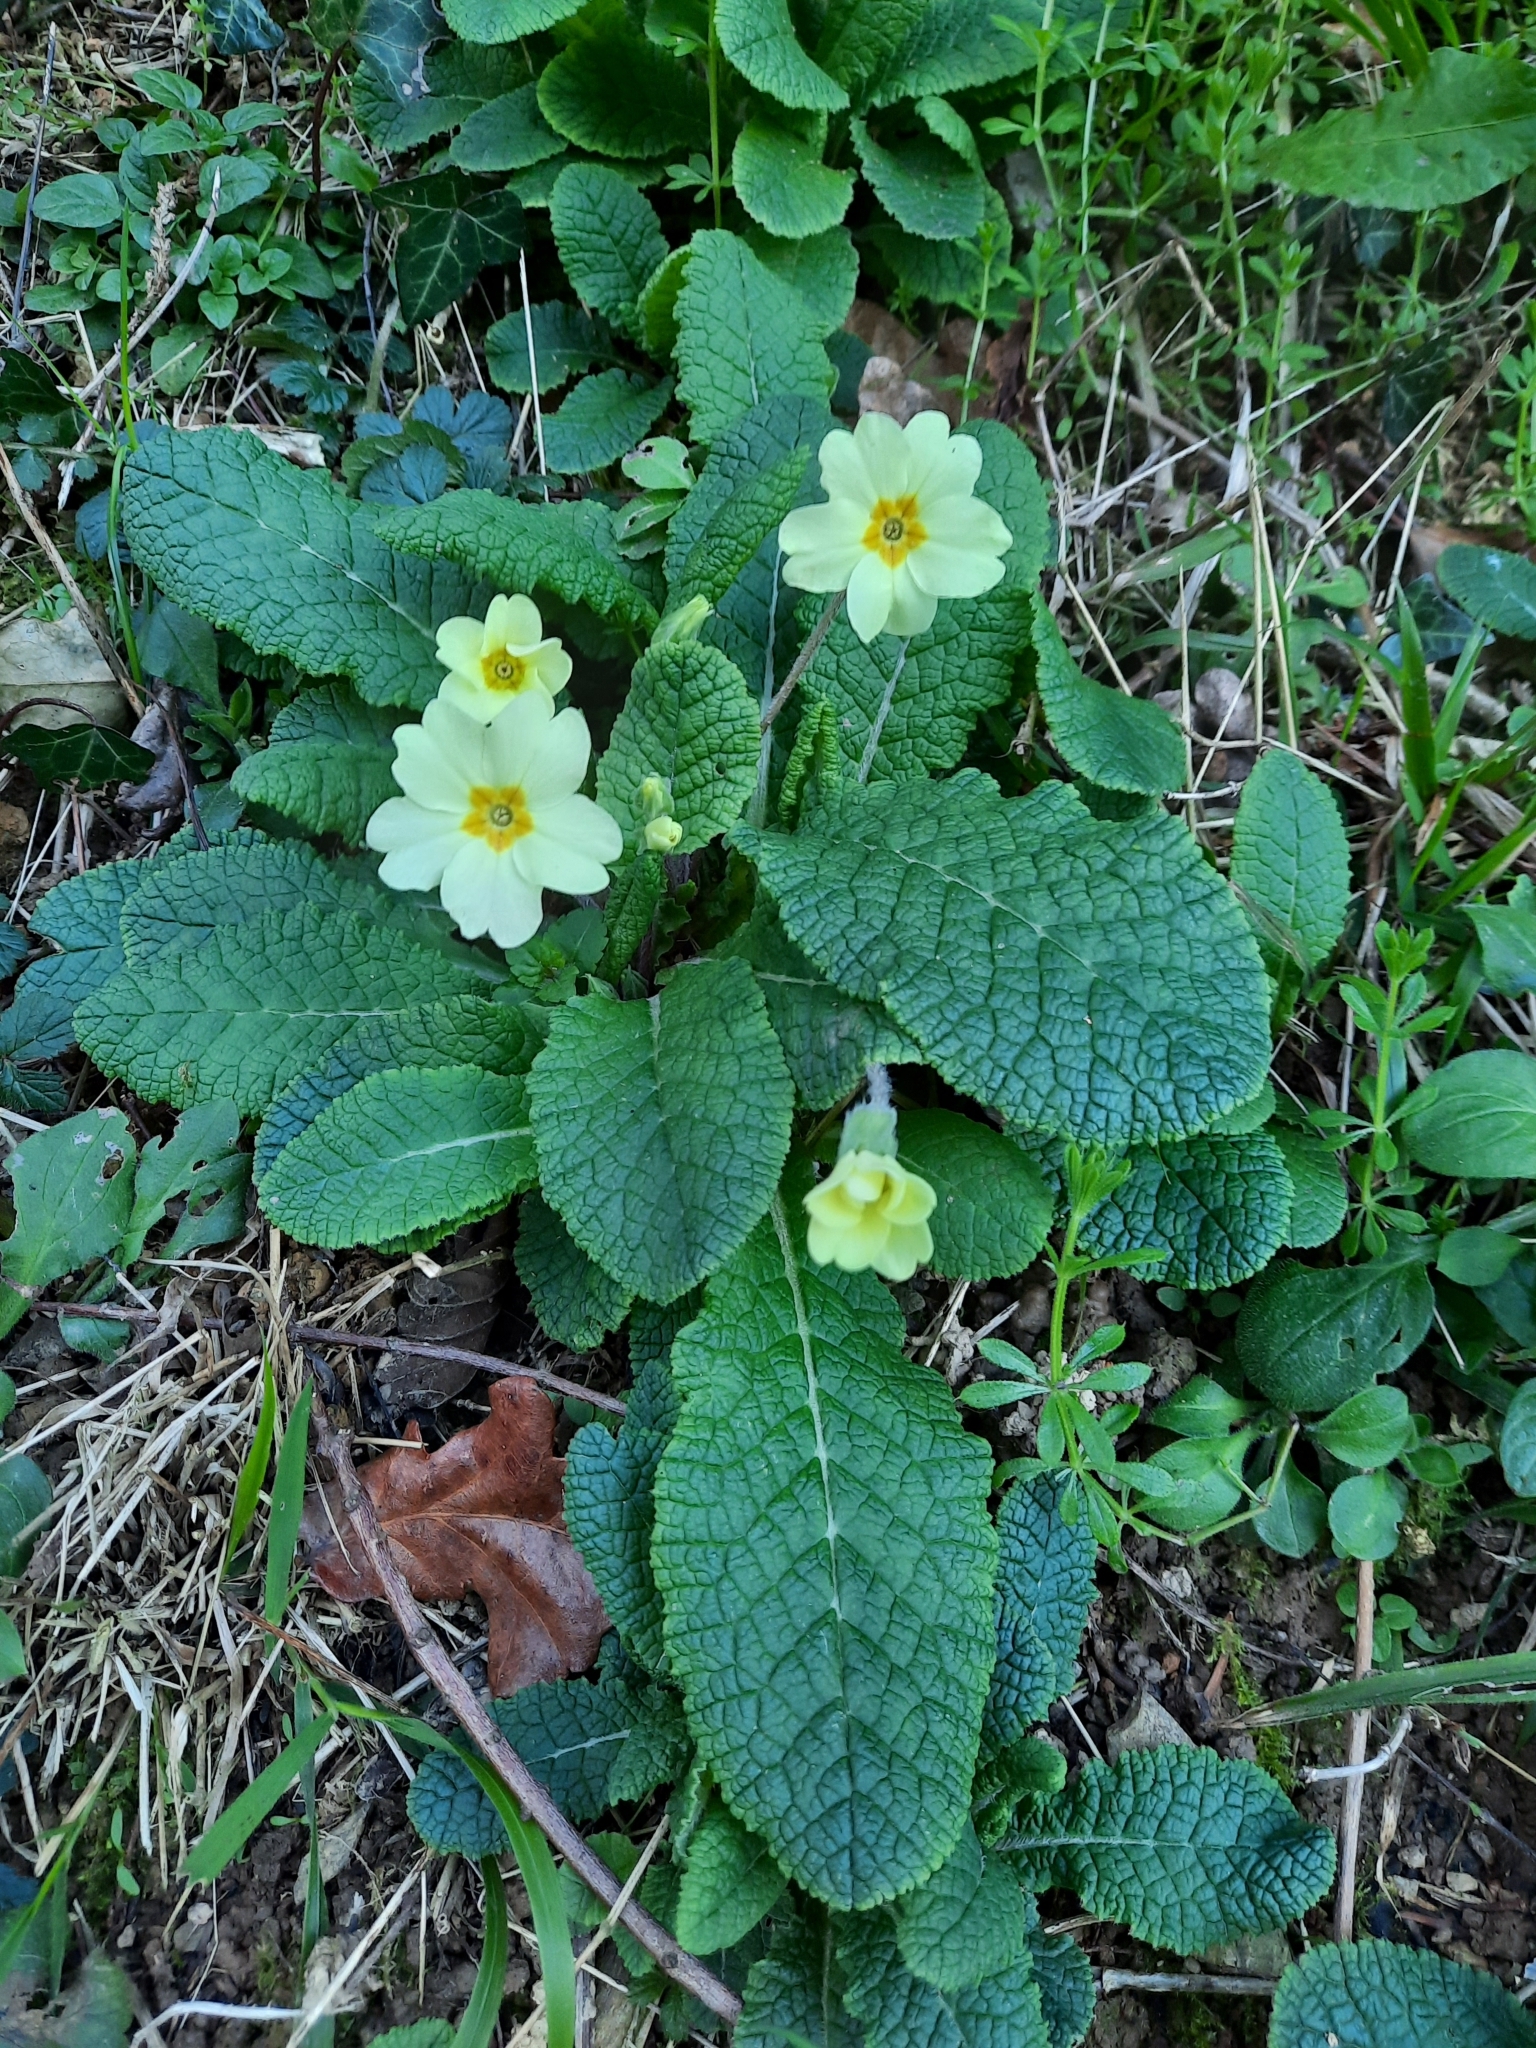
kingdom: Plantae
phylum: Tracheophyta
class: Magnoliopsida
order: Ericales
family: Primulaceae
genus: Primula
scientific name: Primula vulgaris
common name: Primrose
